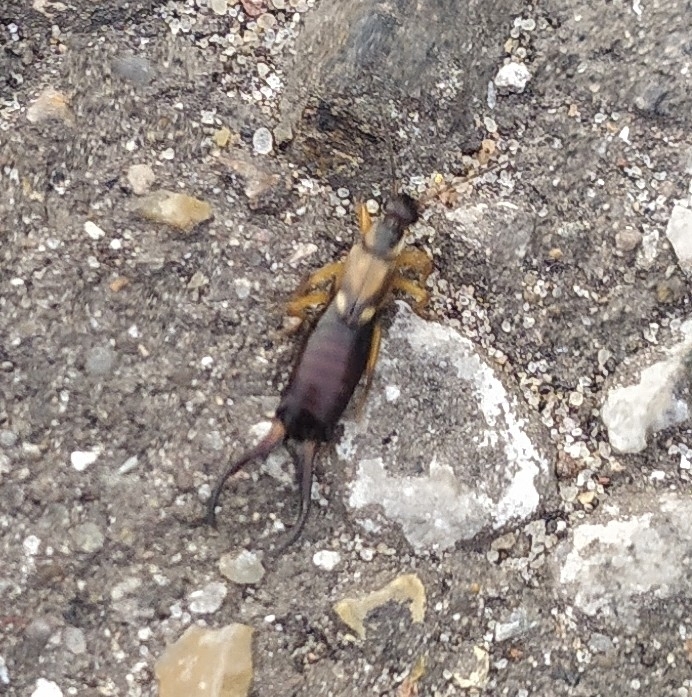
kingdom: Animalia
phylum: Arthropoda
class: Insecta
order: Dermaptera
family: Forficulidae
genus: Forficula
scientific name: Forficula
